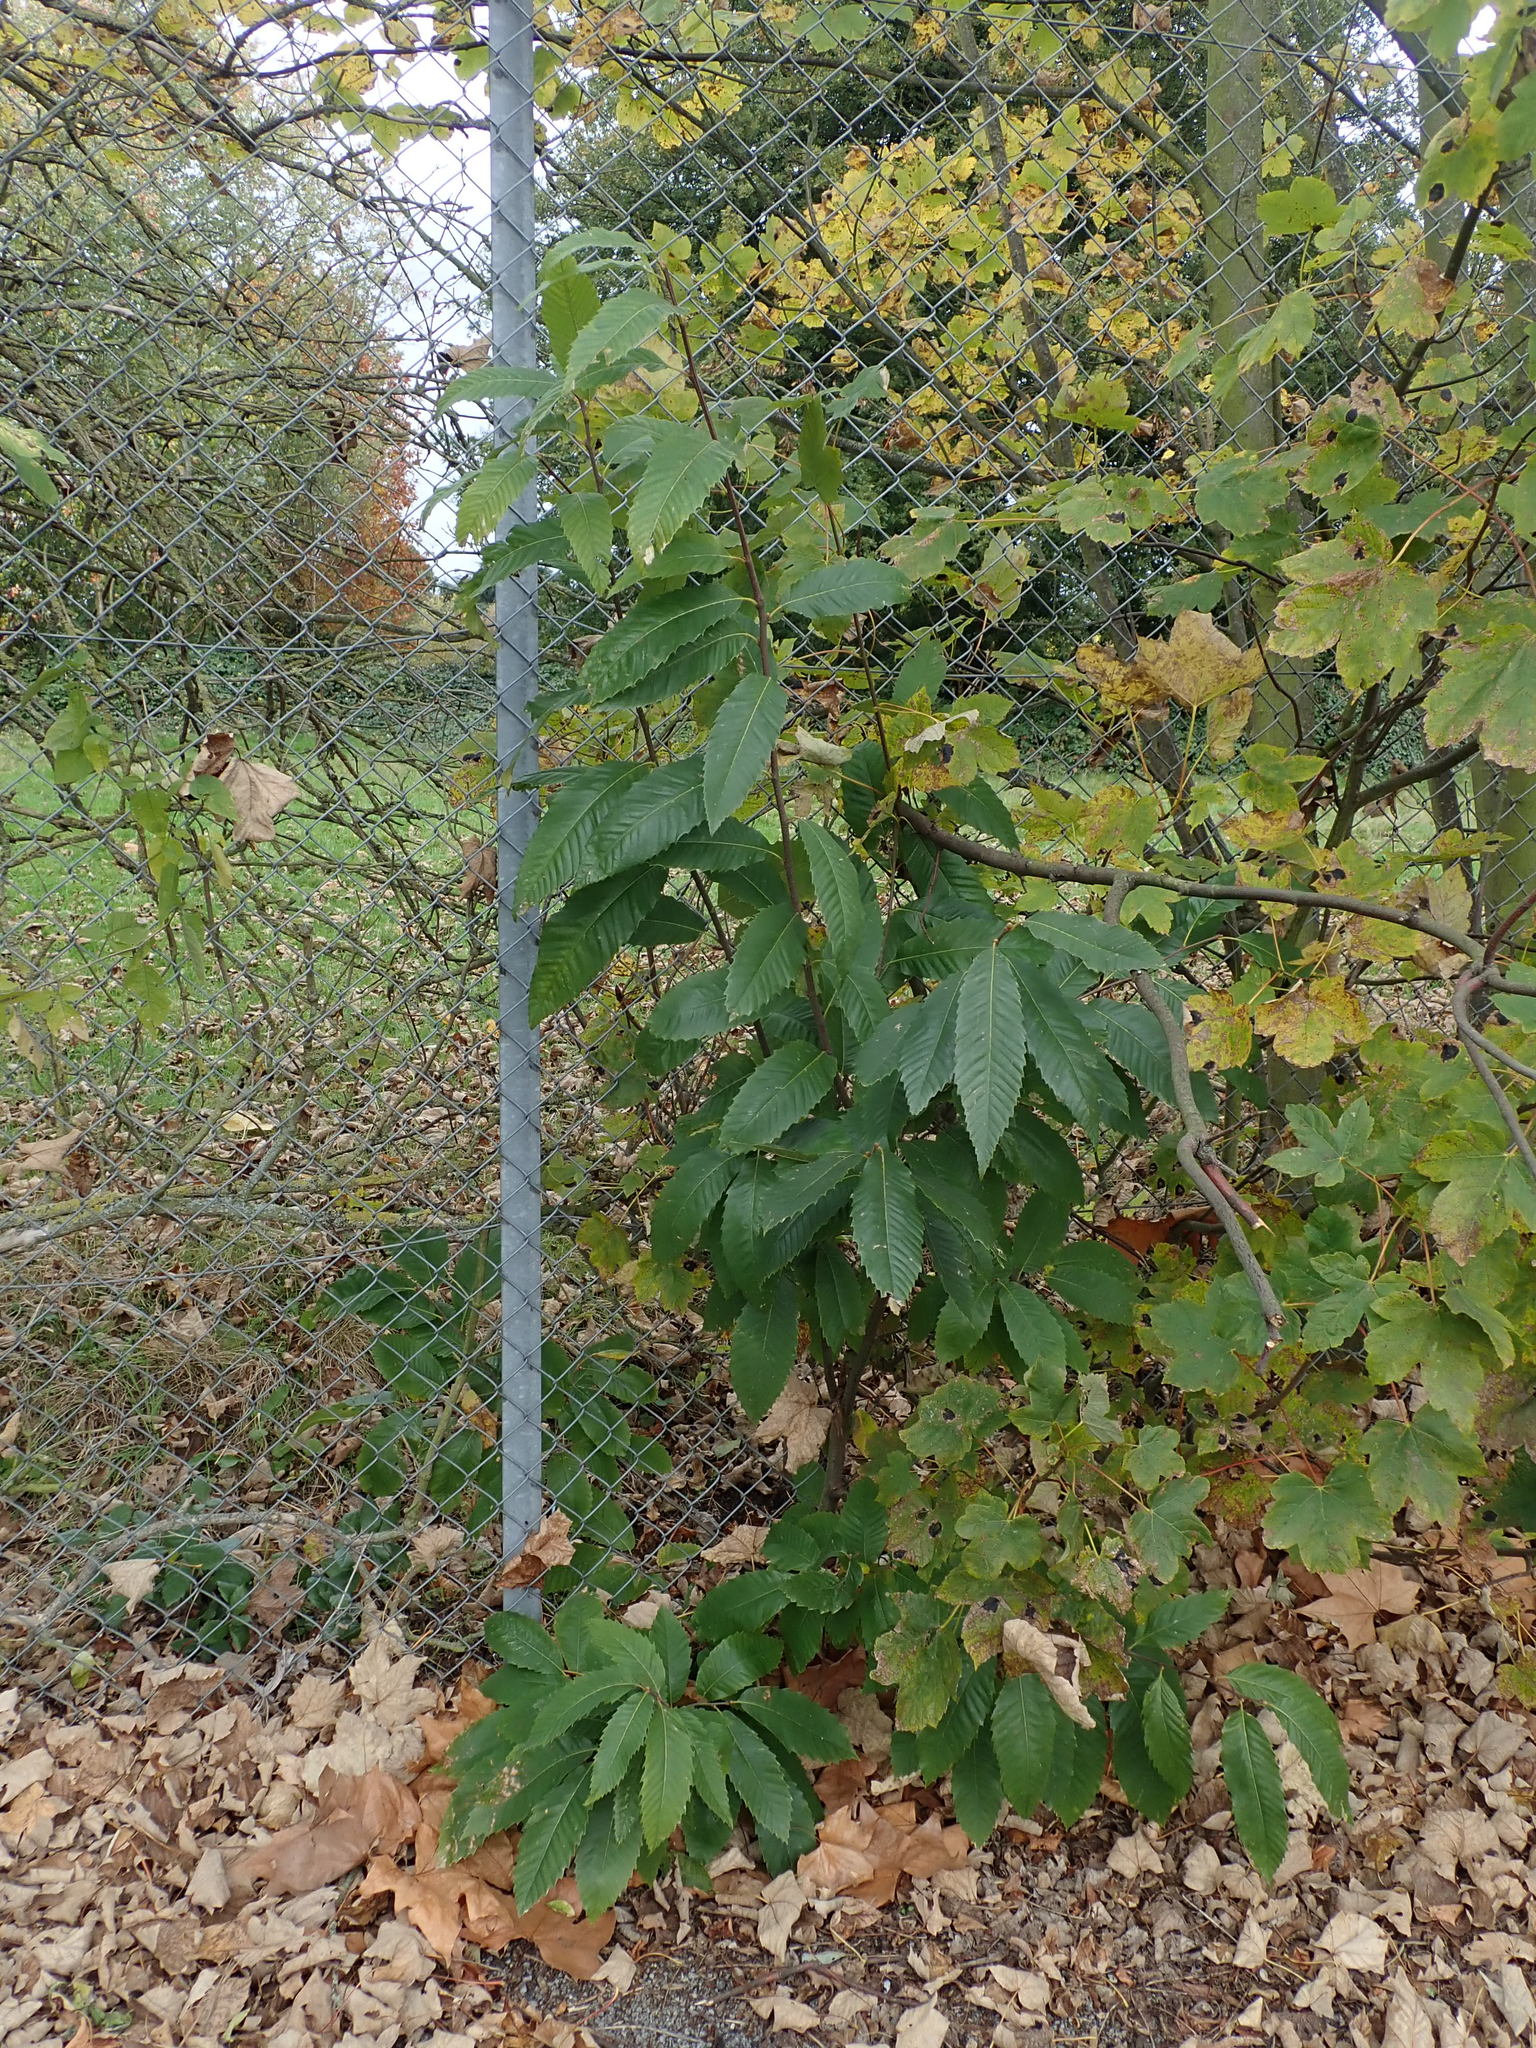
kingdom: Plantae
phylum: Tracheophyta
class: Magnoliopsida
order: Fagales
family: Fagaceae
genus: Castanea
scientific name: Castanea sativa
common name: Sweet chestnut
